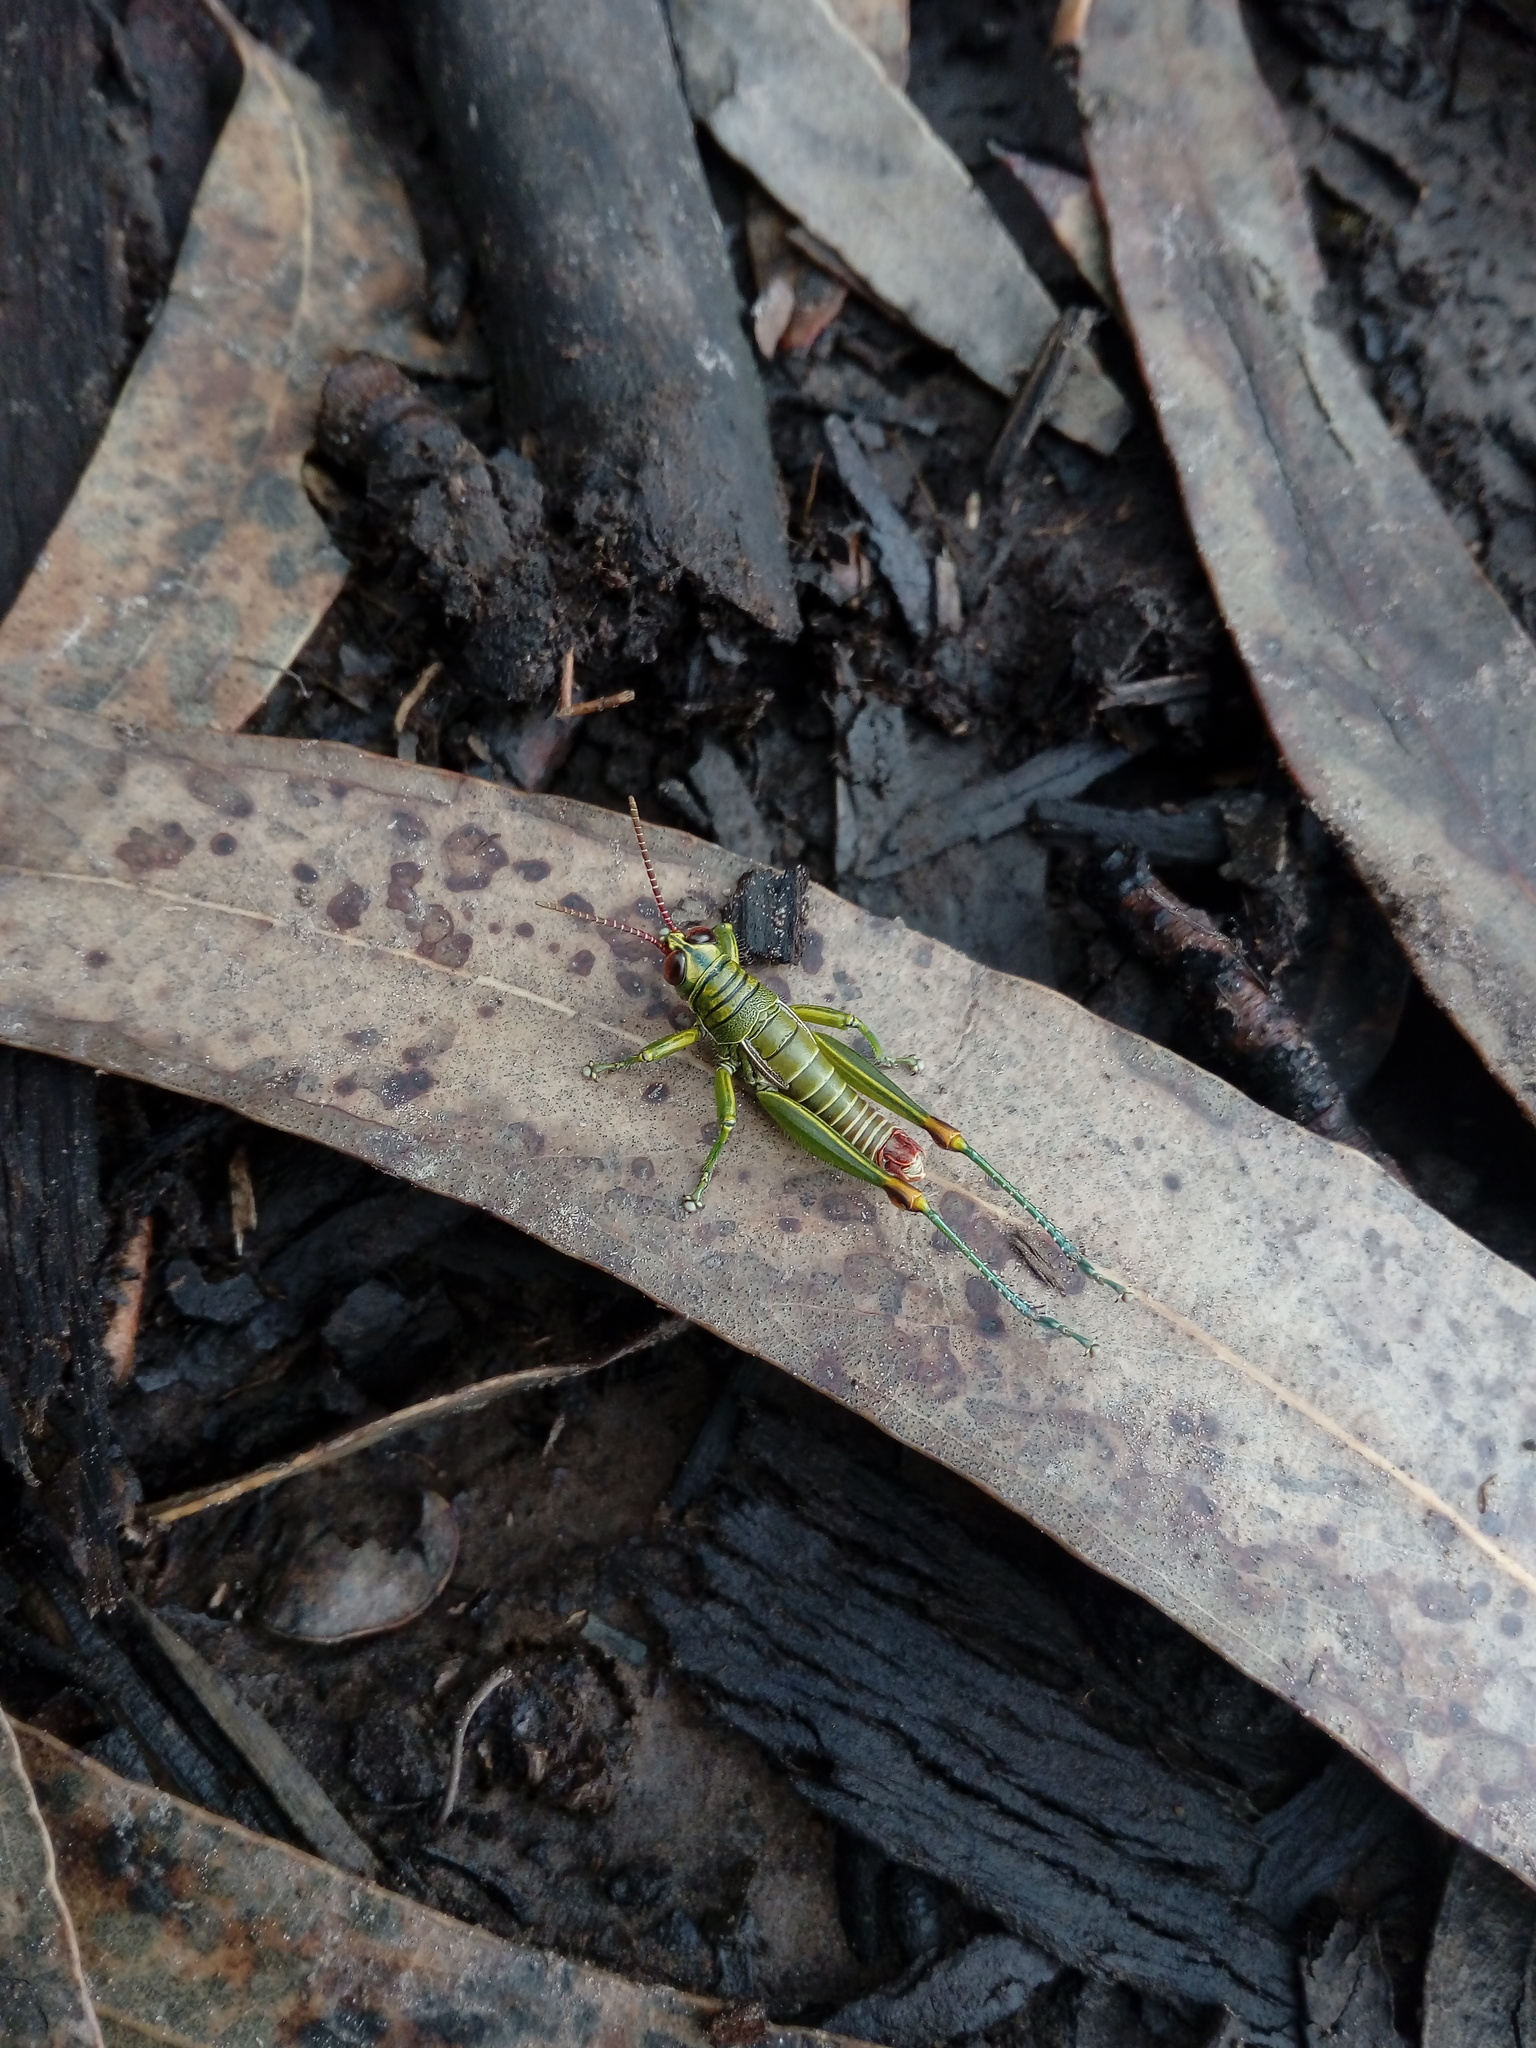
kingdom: Animalia
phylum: Arthropoda
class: Insecta
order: Orthoptera
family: Acrididae
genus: Agesander
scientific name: Agesander ruficornis
